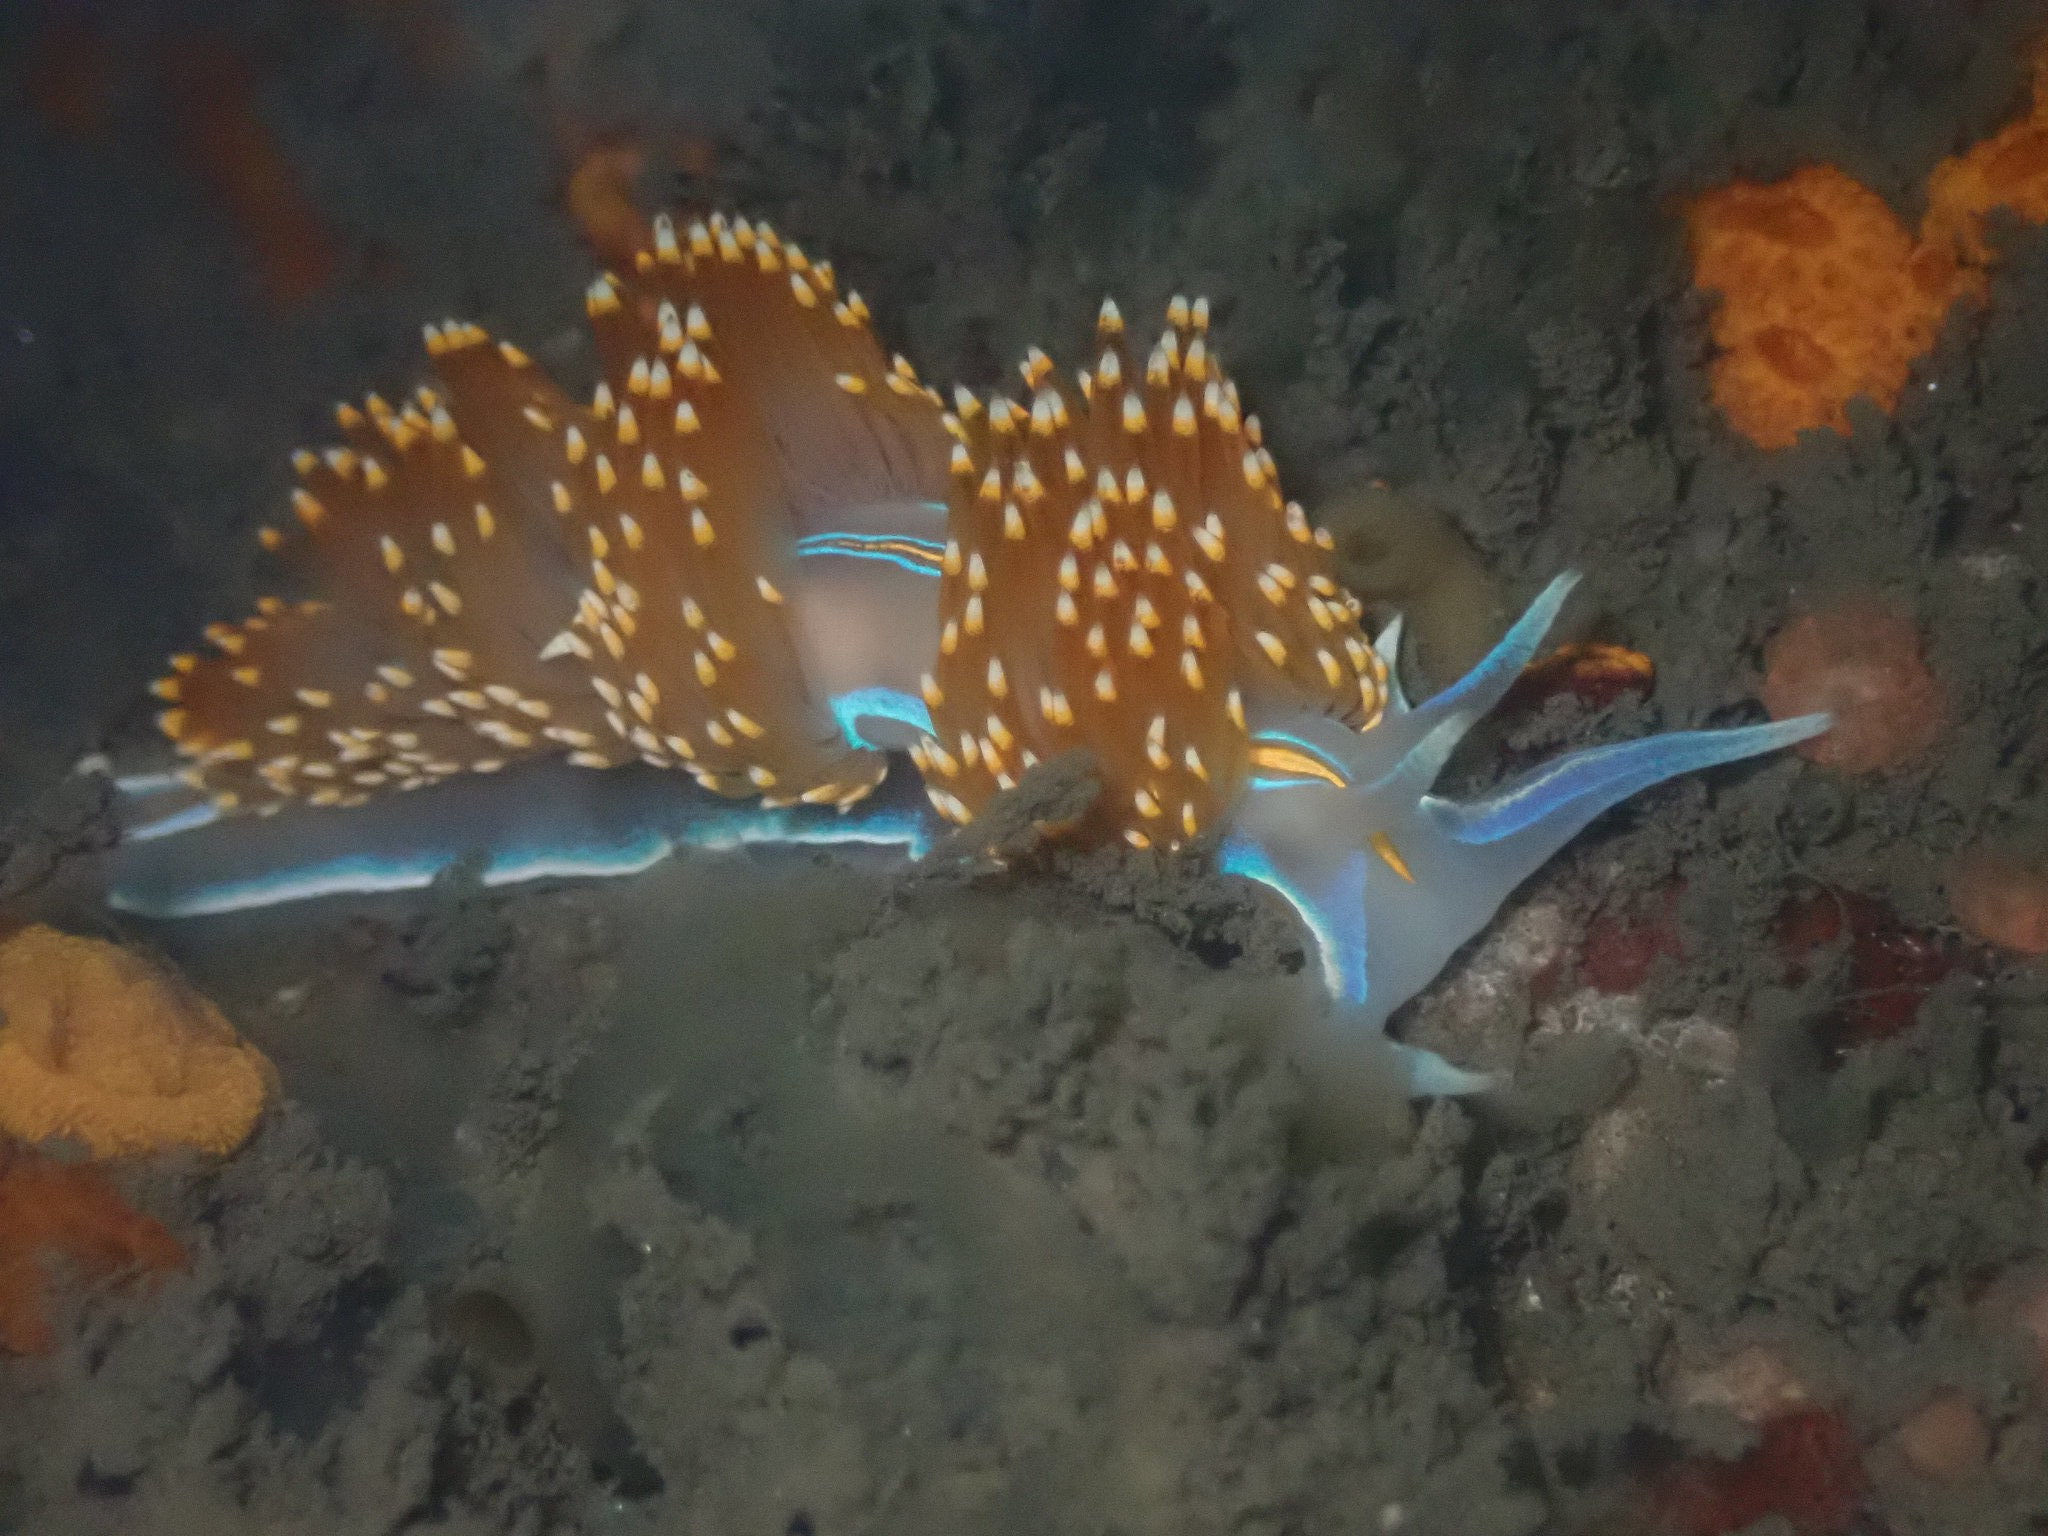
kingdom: Animalia
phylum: Mollusca
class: Gastropoda
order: Nudibranchia
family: Myrrhinidae
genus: Hermissenda
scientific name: Hermissenda opalescens
